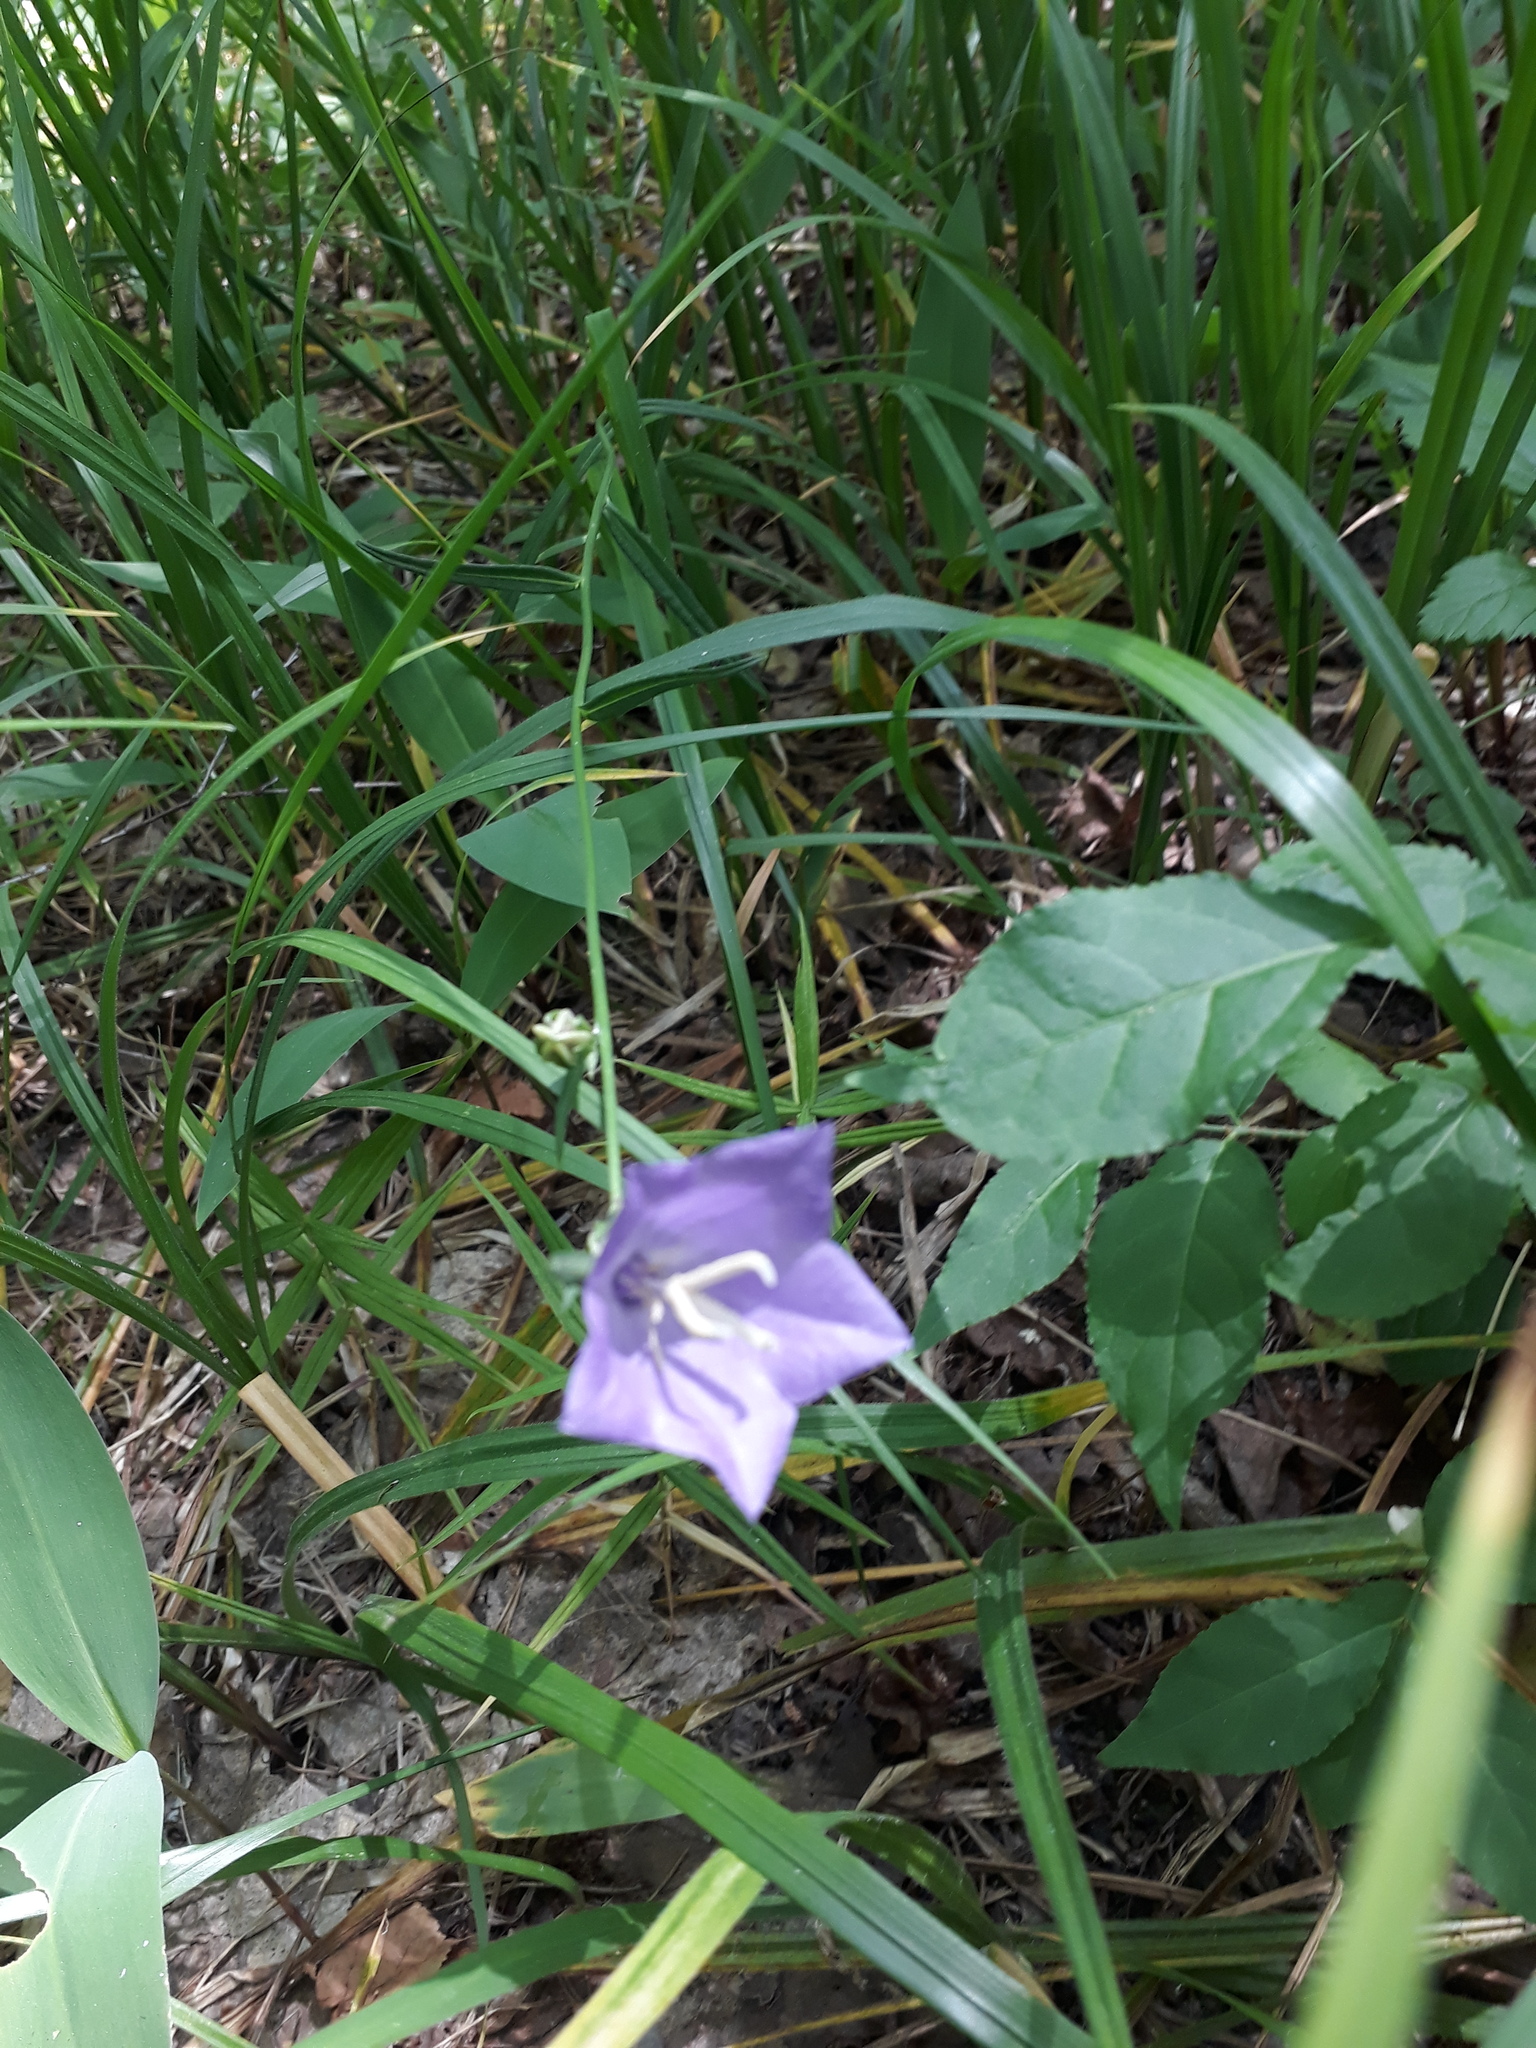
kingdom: Plantae
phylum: Tracheophyta
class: Magnoliopsida
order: Asterales
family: Campanulaceae
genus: Campanula
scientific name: Campanula persicifolia
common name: Peach-leaved bellflower
